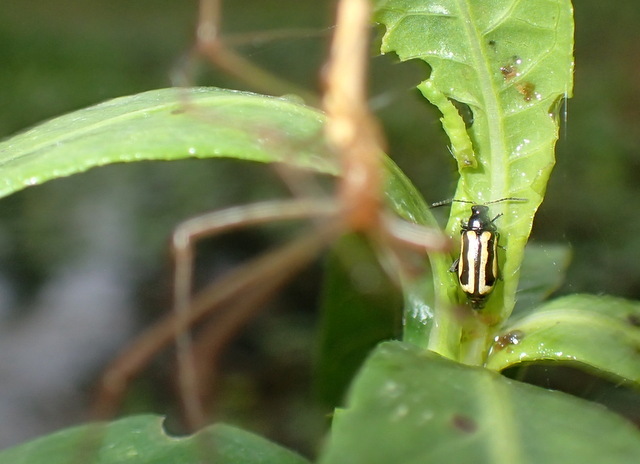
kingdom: Animalia
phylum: Arthropoda
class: Insecta
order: Coleoptera
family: Chrysomelidae
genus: Agasicles
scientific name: Agasicles hygrophila
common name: Alligatorweed flea beetle
